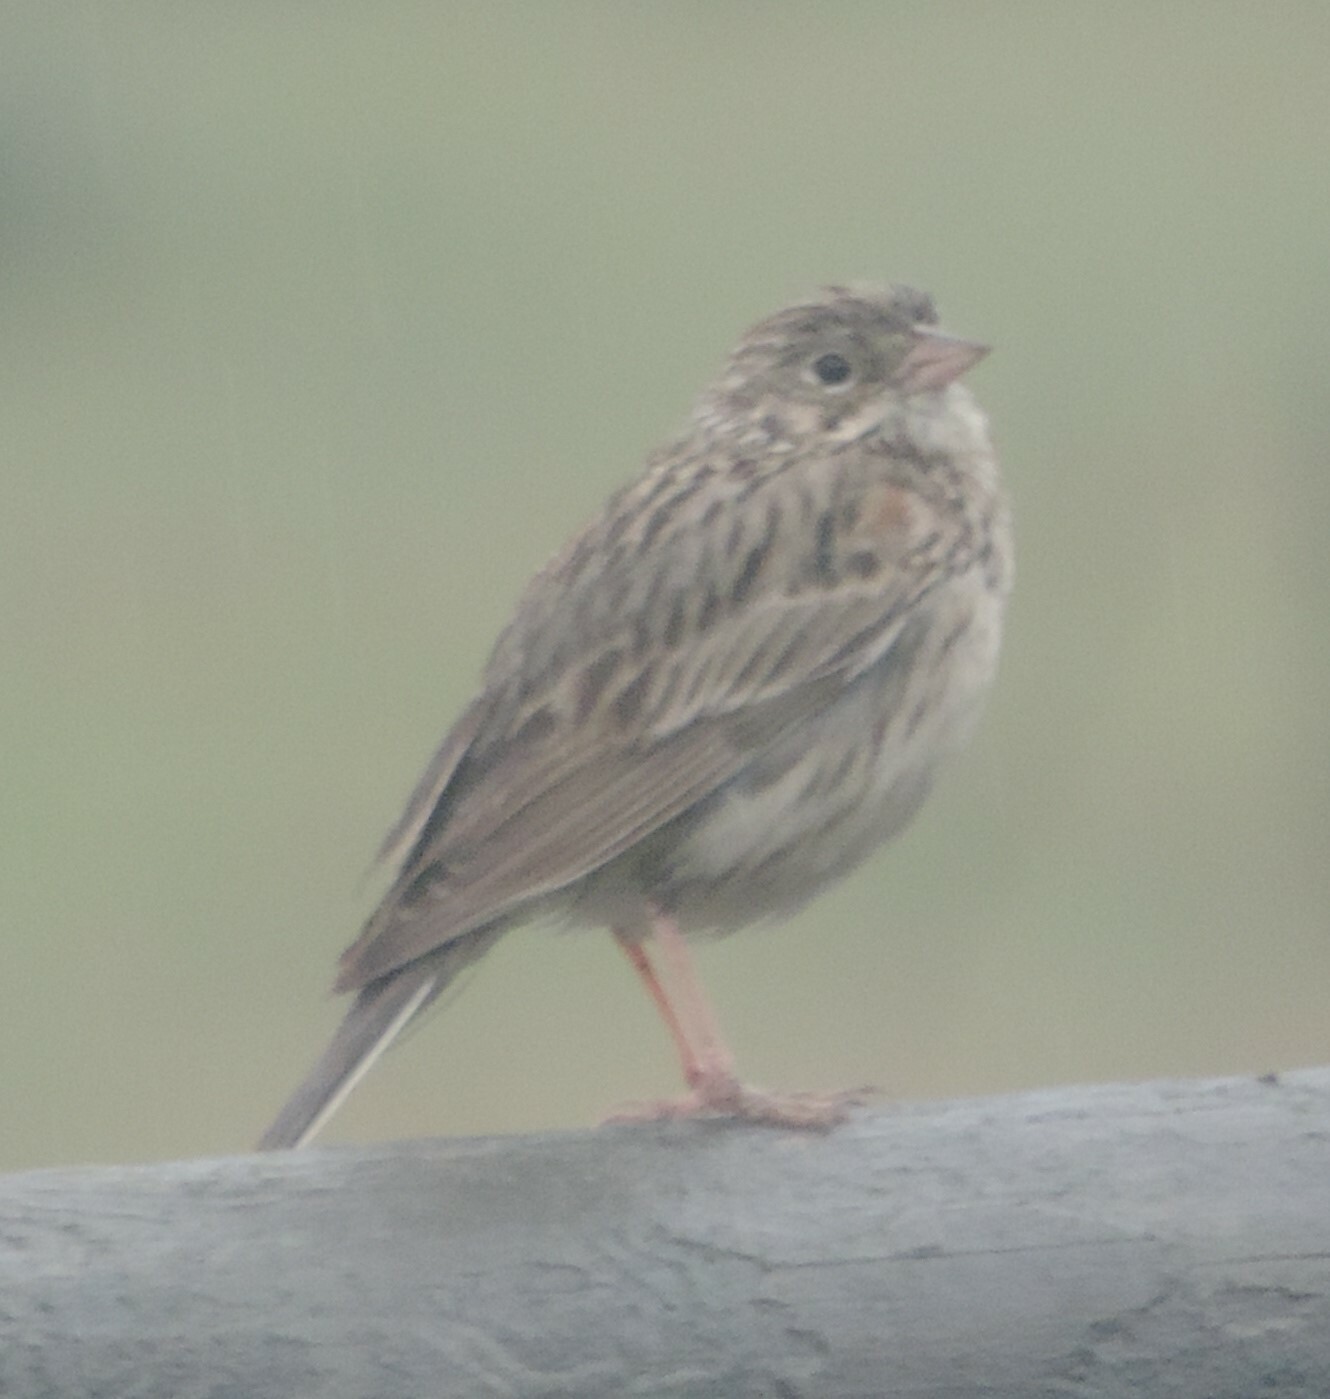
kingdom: Animalia
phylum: Chordata
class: Aves
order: Passeriformes
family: Passerellidae
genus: Pooecetes
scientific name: Pooecetes gramineus
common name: Vesper sparrow
